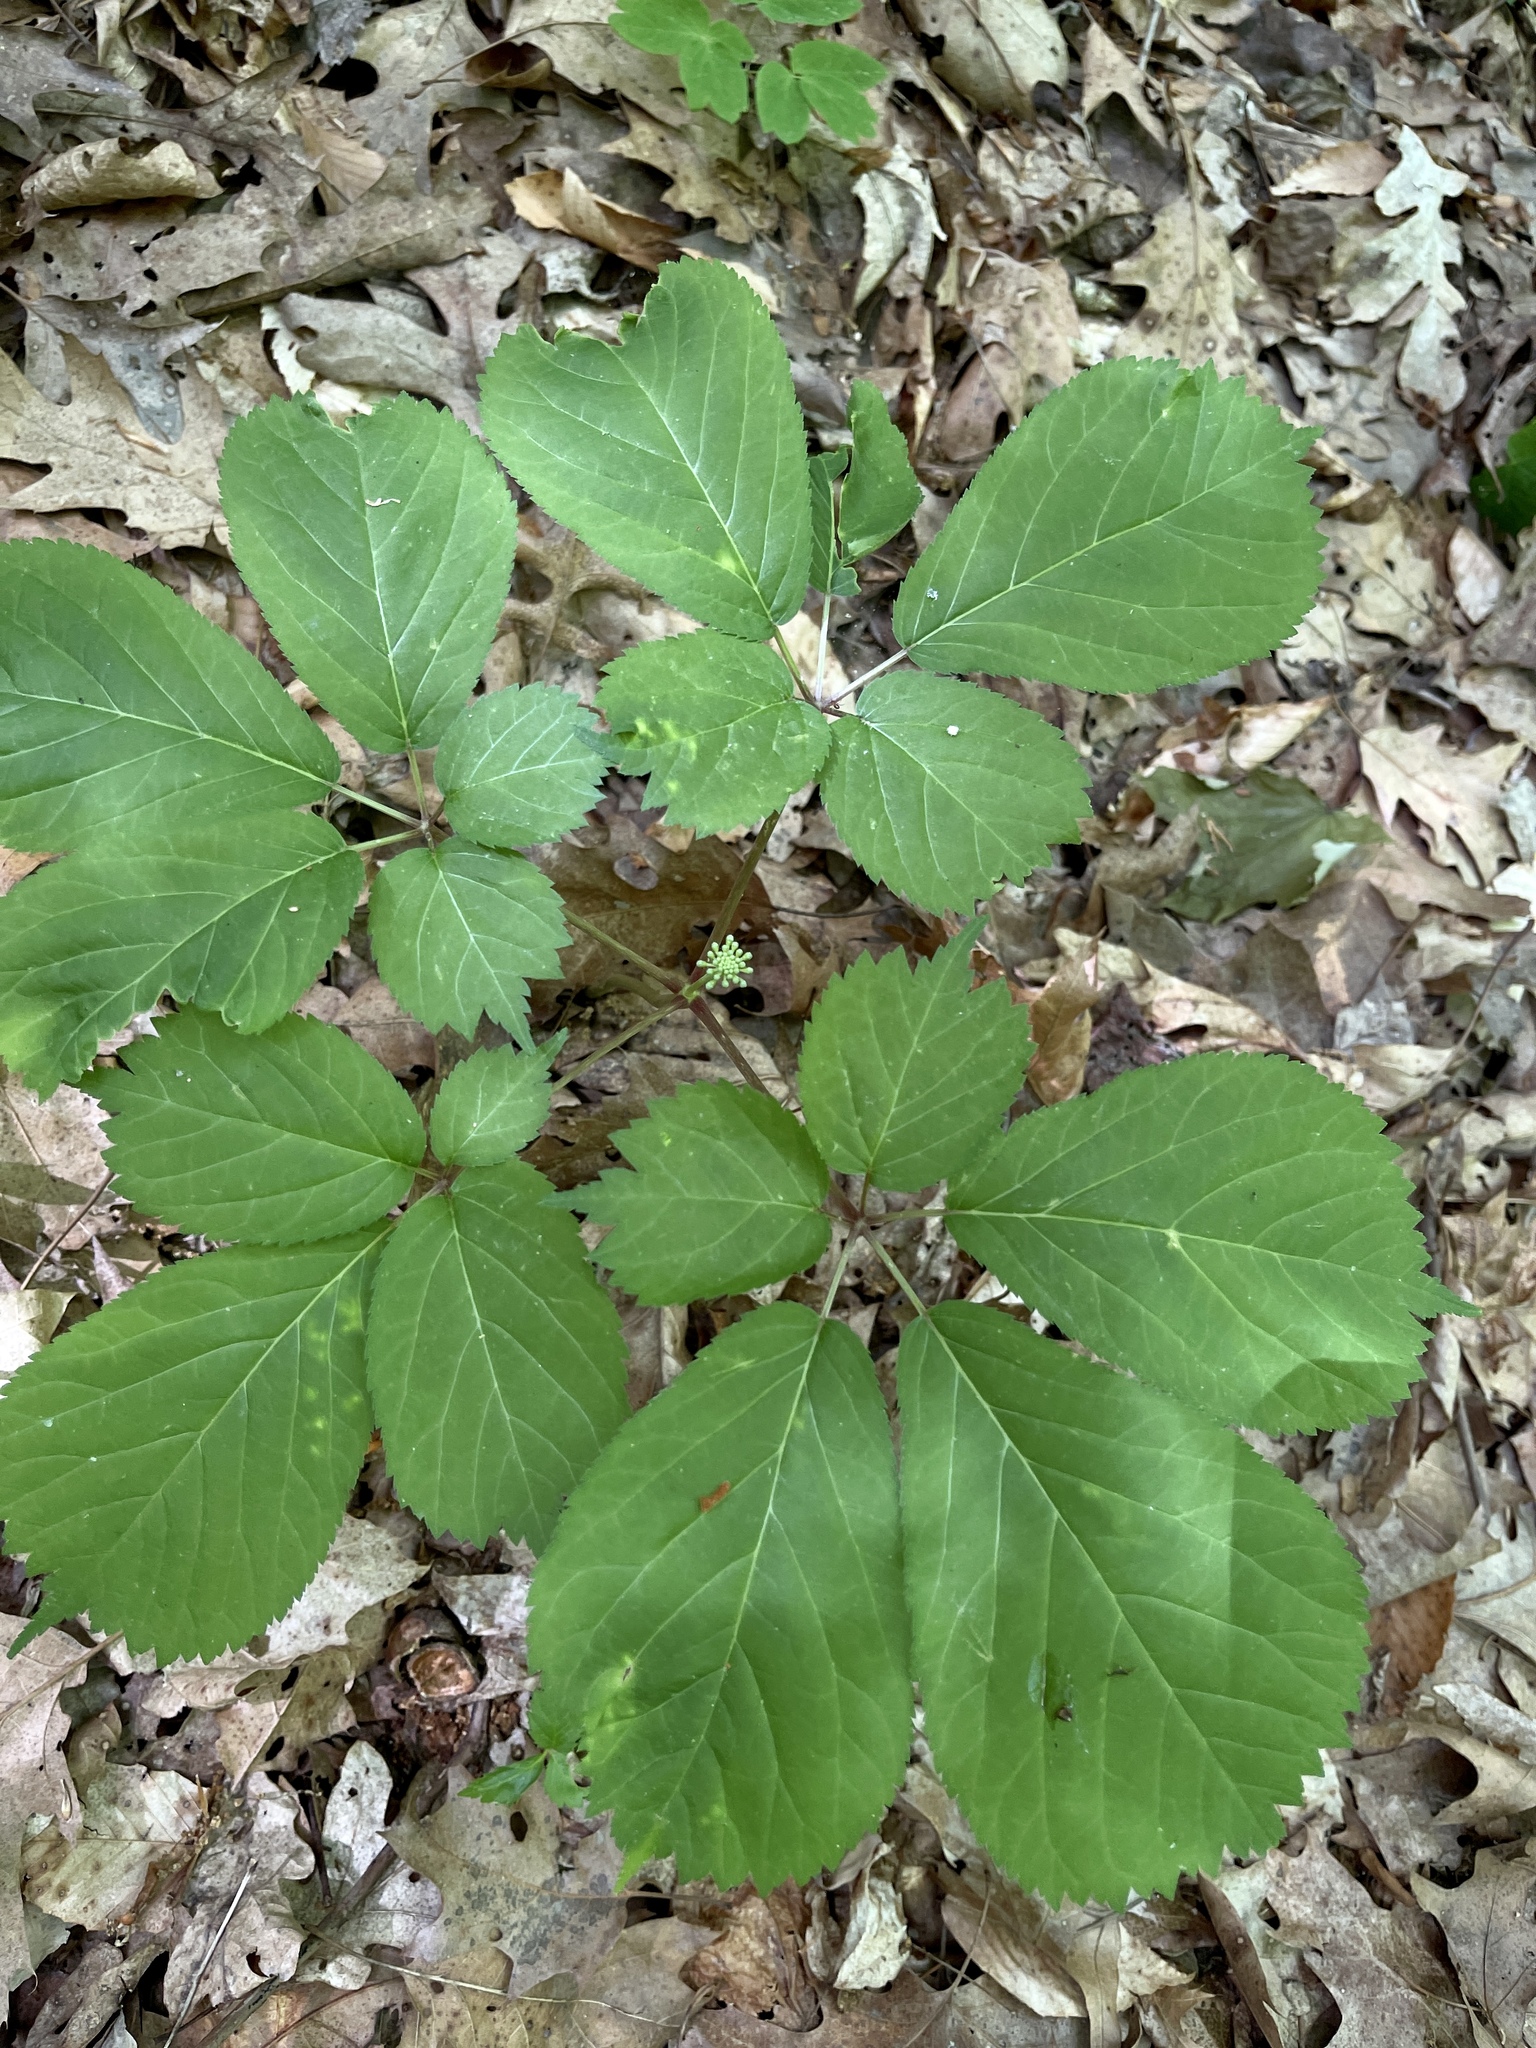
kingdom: Plantae
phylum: Tracheophyta
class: Magnoliopsida
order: Apiales
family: Araliaceae
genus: Panax
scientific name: Panax quinquefolius
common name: American ginseng
